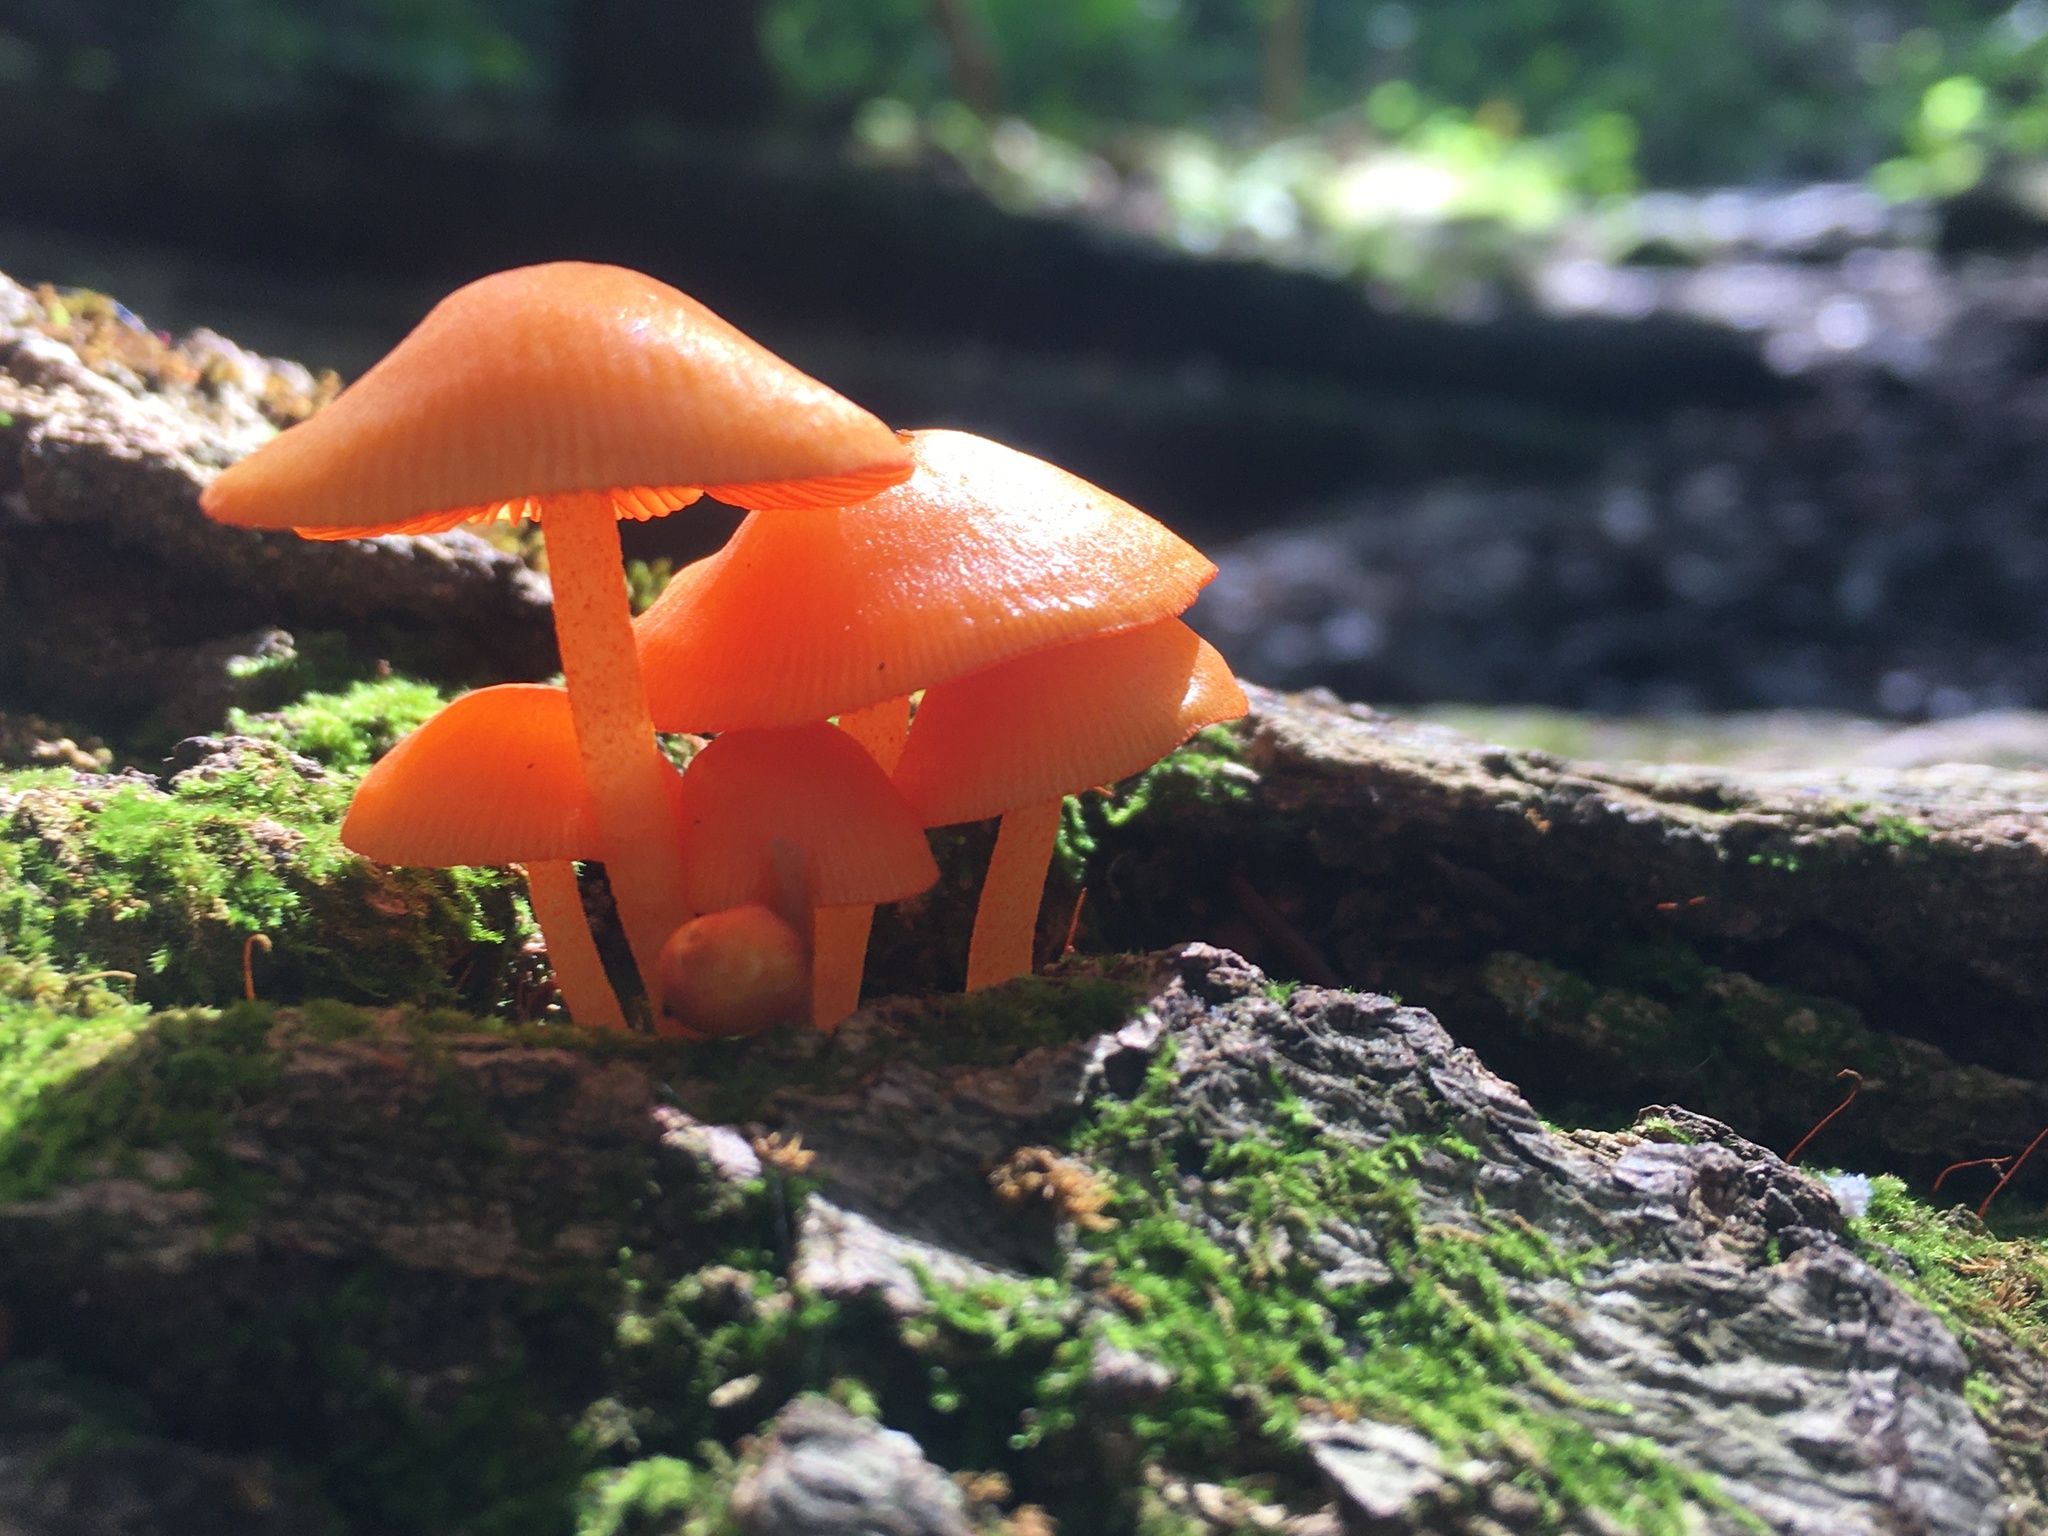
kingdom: Fungi
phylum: Basidiomycota
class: Agaricomycetes
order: Agaricales
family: Mycenaceae
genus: Mycena
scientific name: Mycena leaiana
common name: Orange mycena
